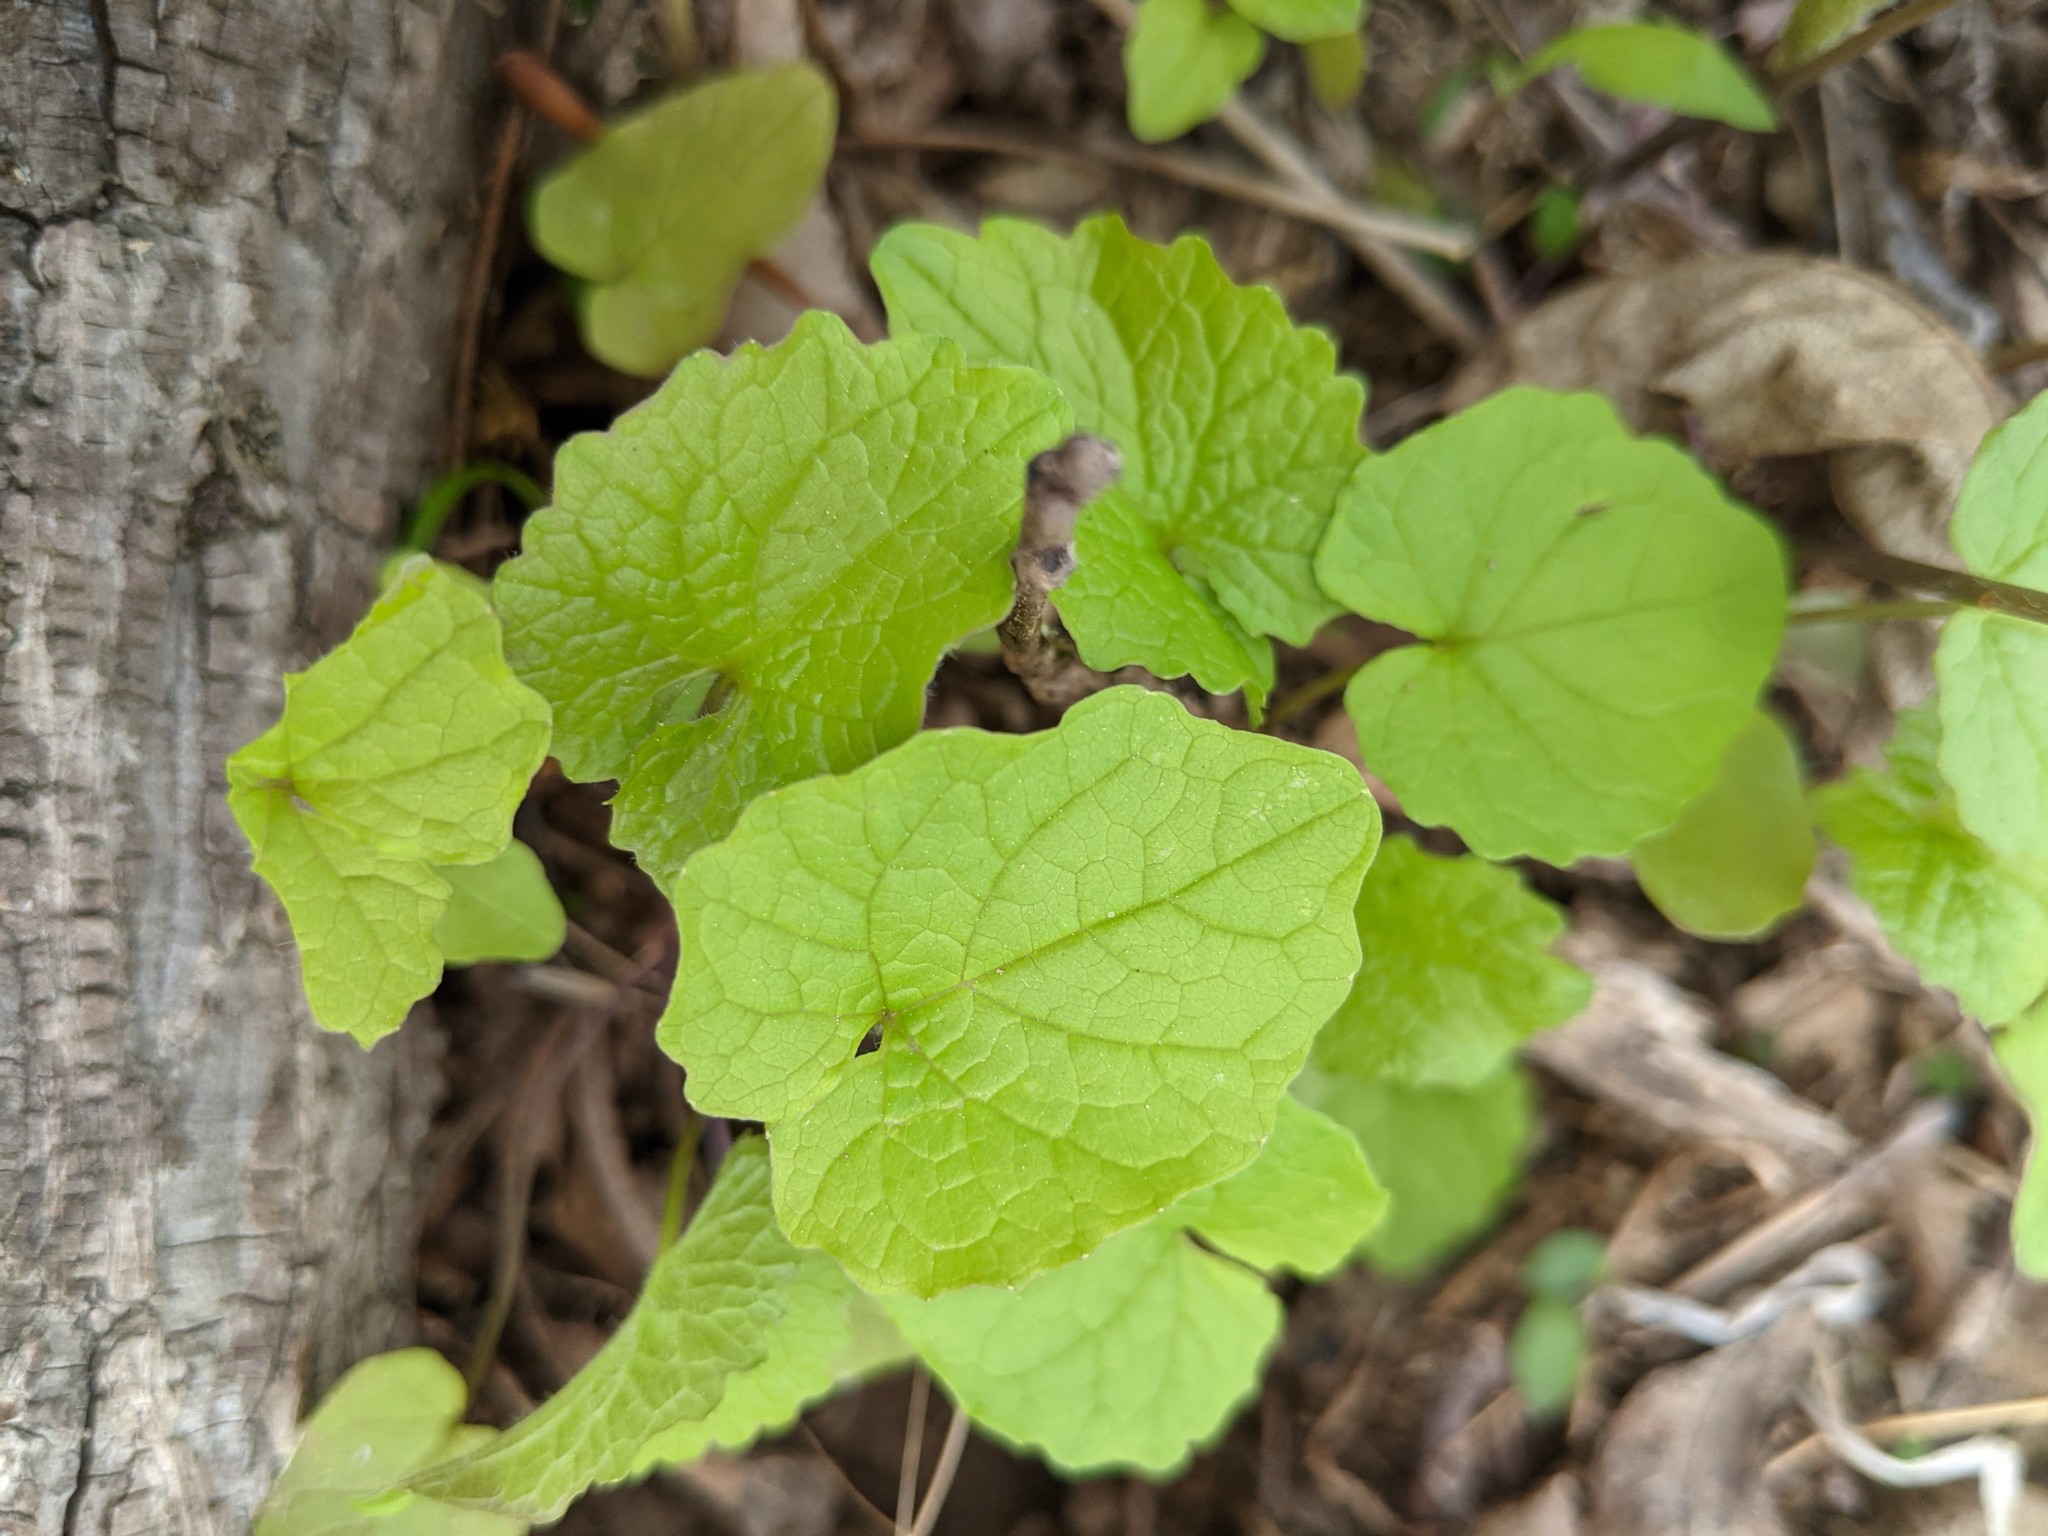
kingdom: Plantae
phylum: Tracheophyta
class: Magnoliopsida
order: Brassicales
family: Brassicaceae
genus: Alliaria
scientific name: Alliaria petiolata
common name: Garlic mustard
